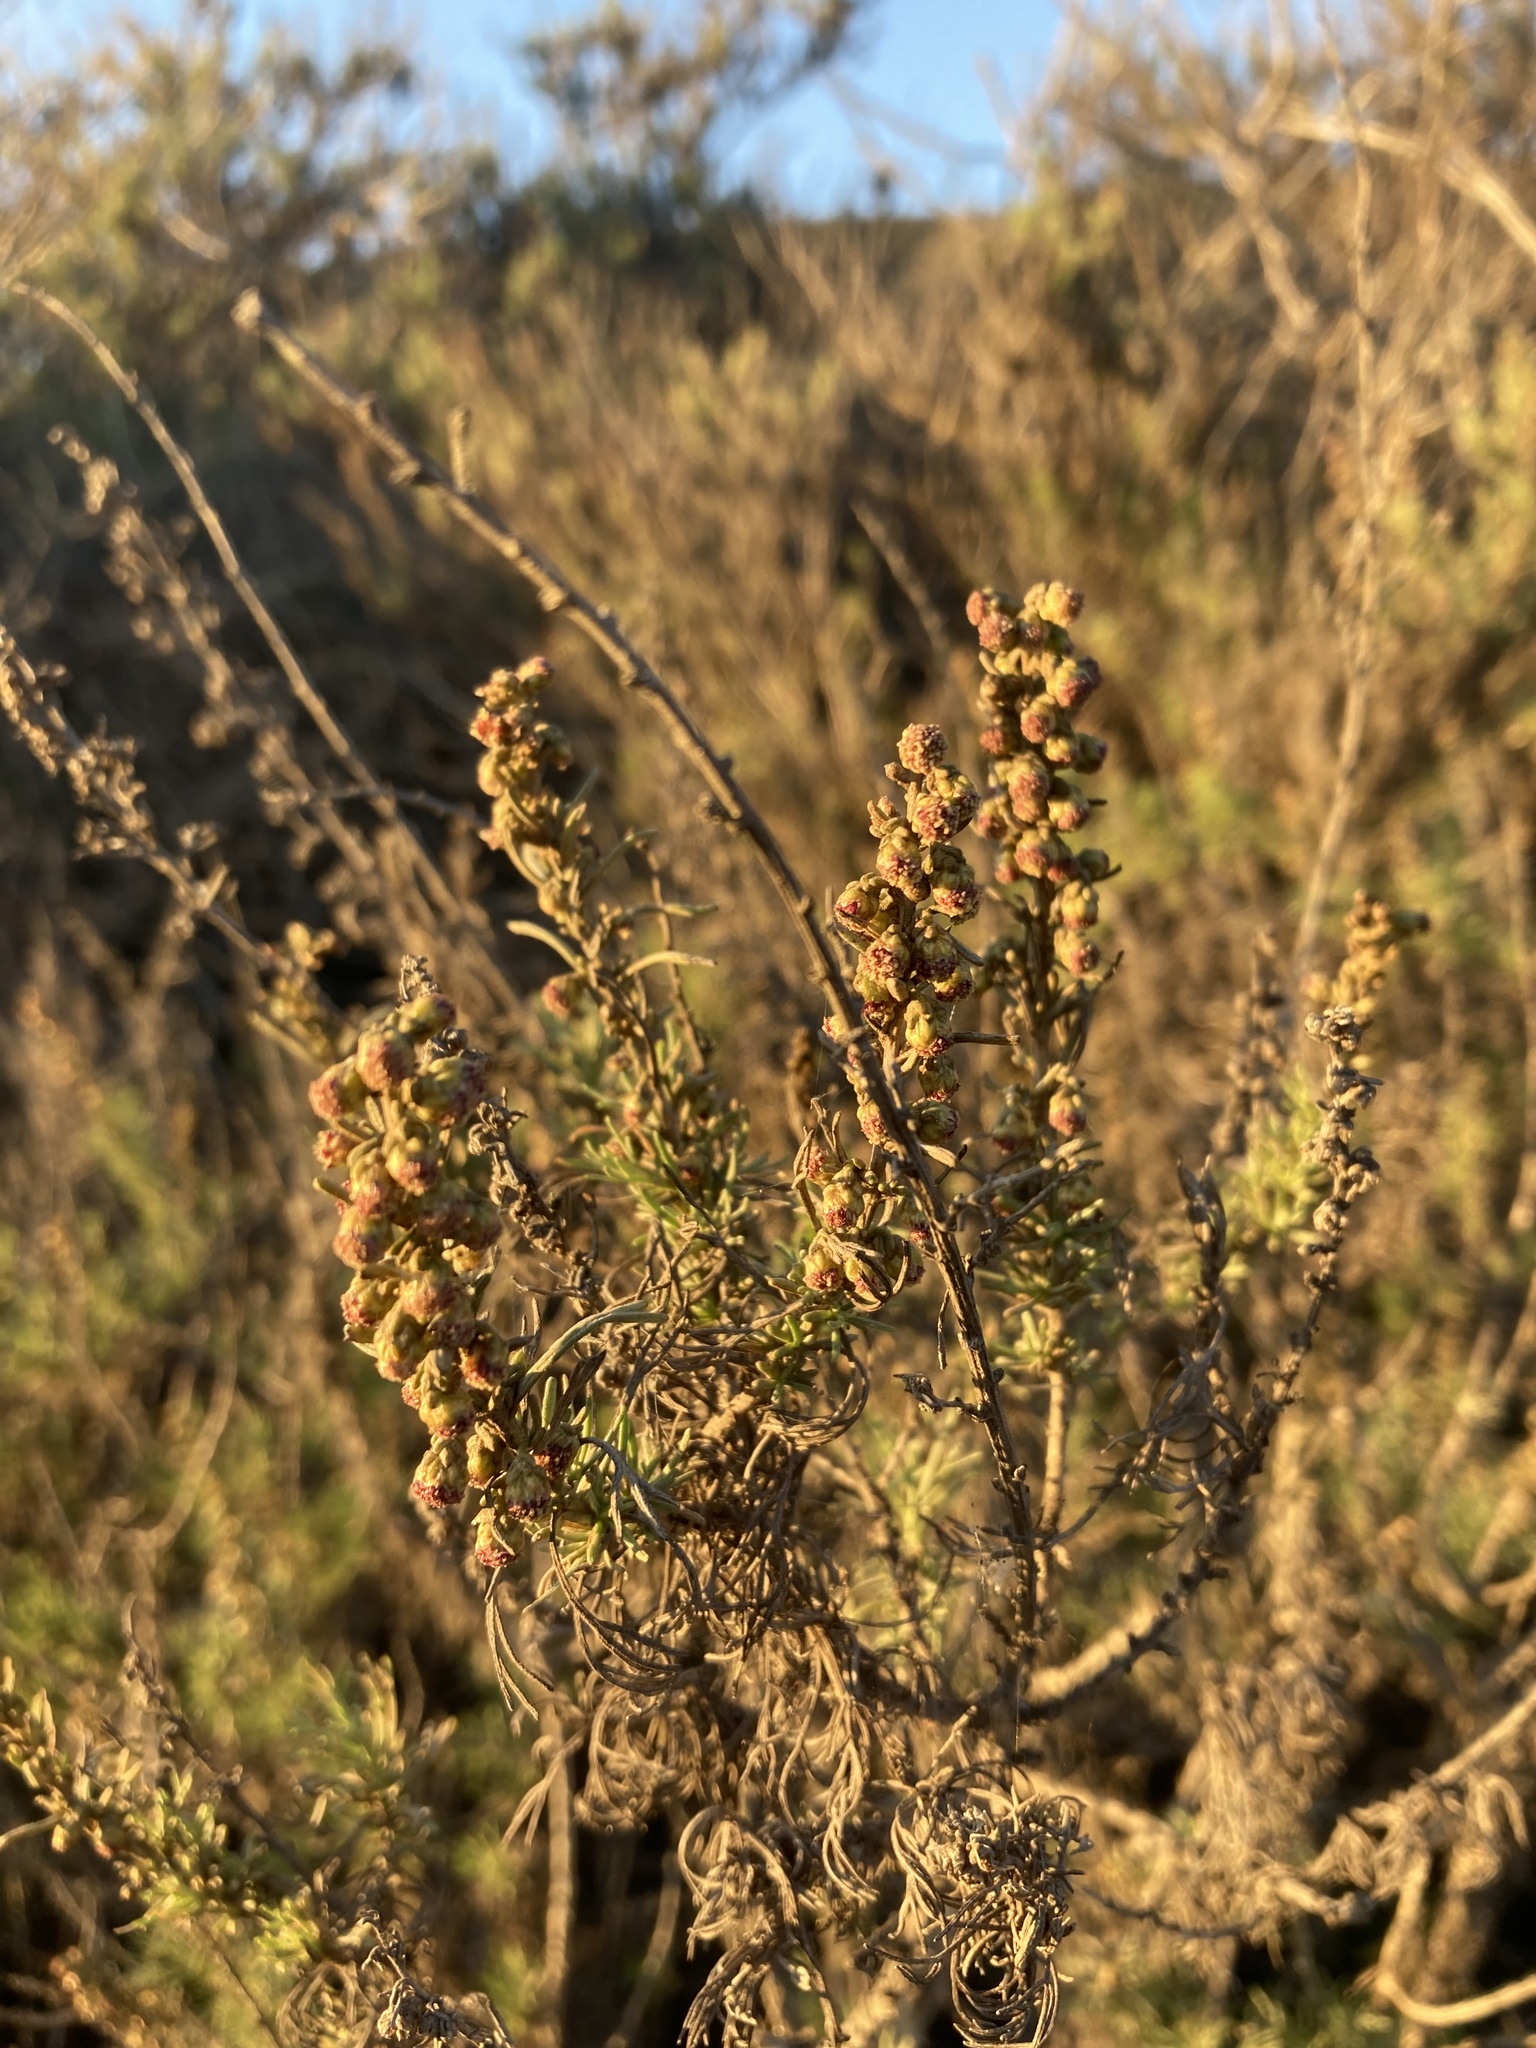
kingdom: Plantae
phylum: Tracheophyta
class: Magnoliopsida
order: Asterales
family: Asteraceae
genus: Artemisia
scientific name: Artemisia californica
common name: California sagebrush
